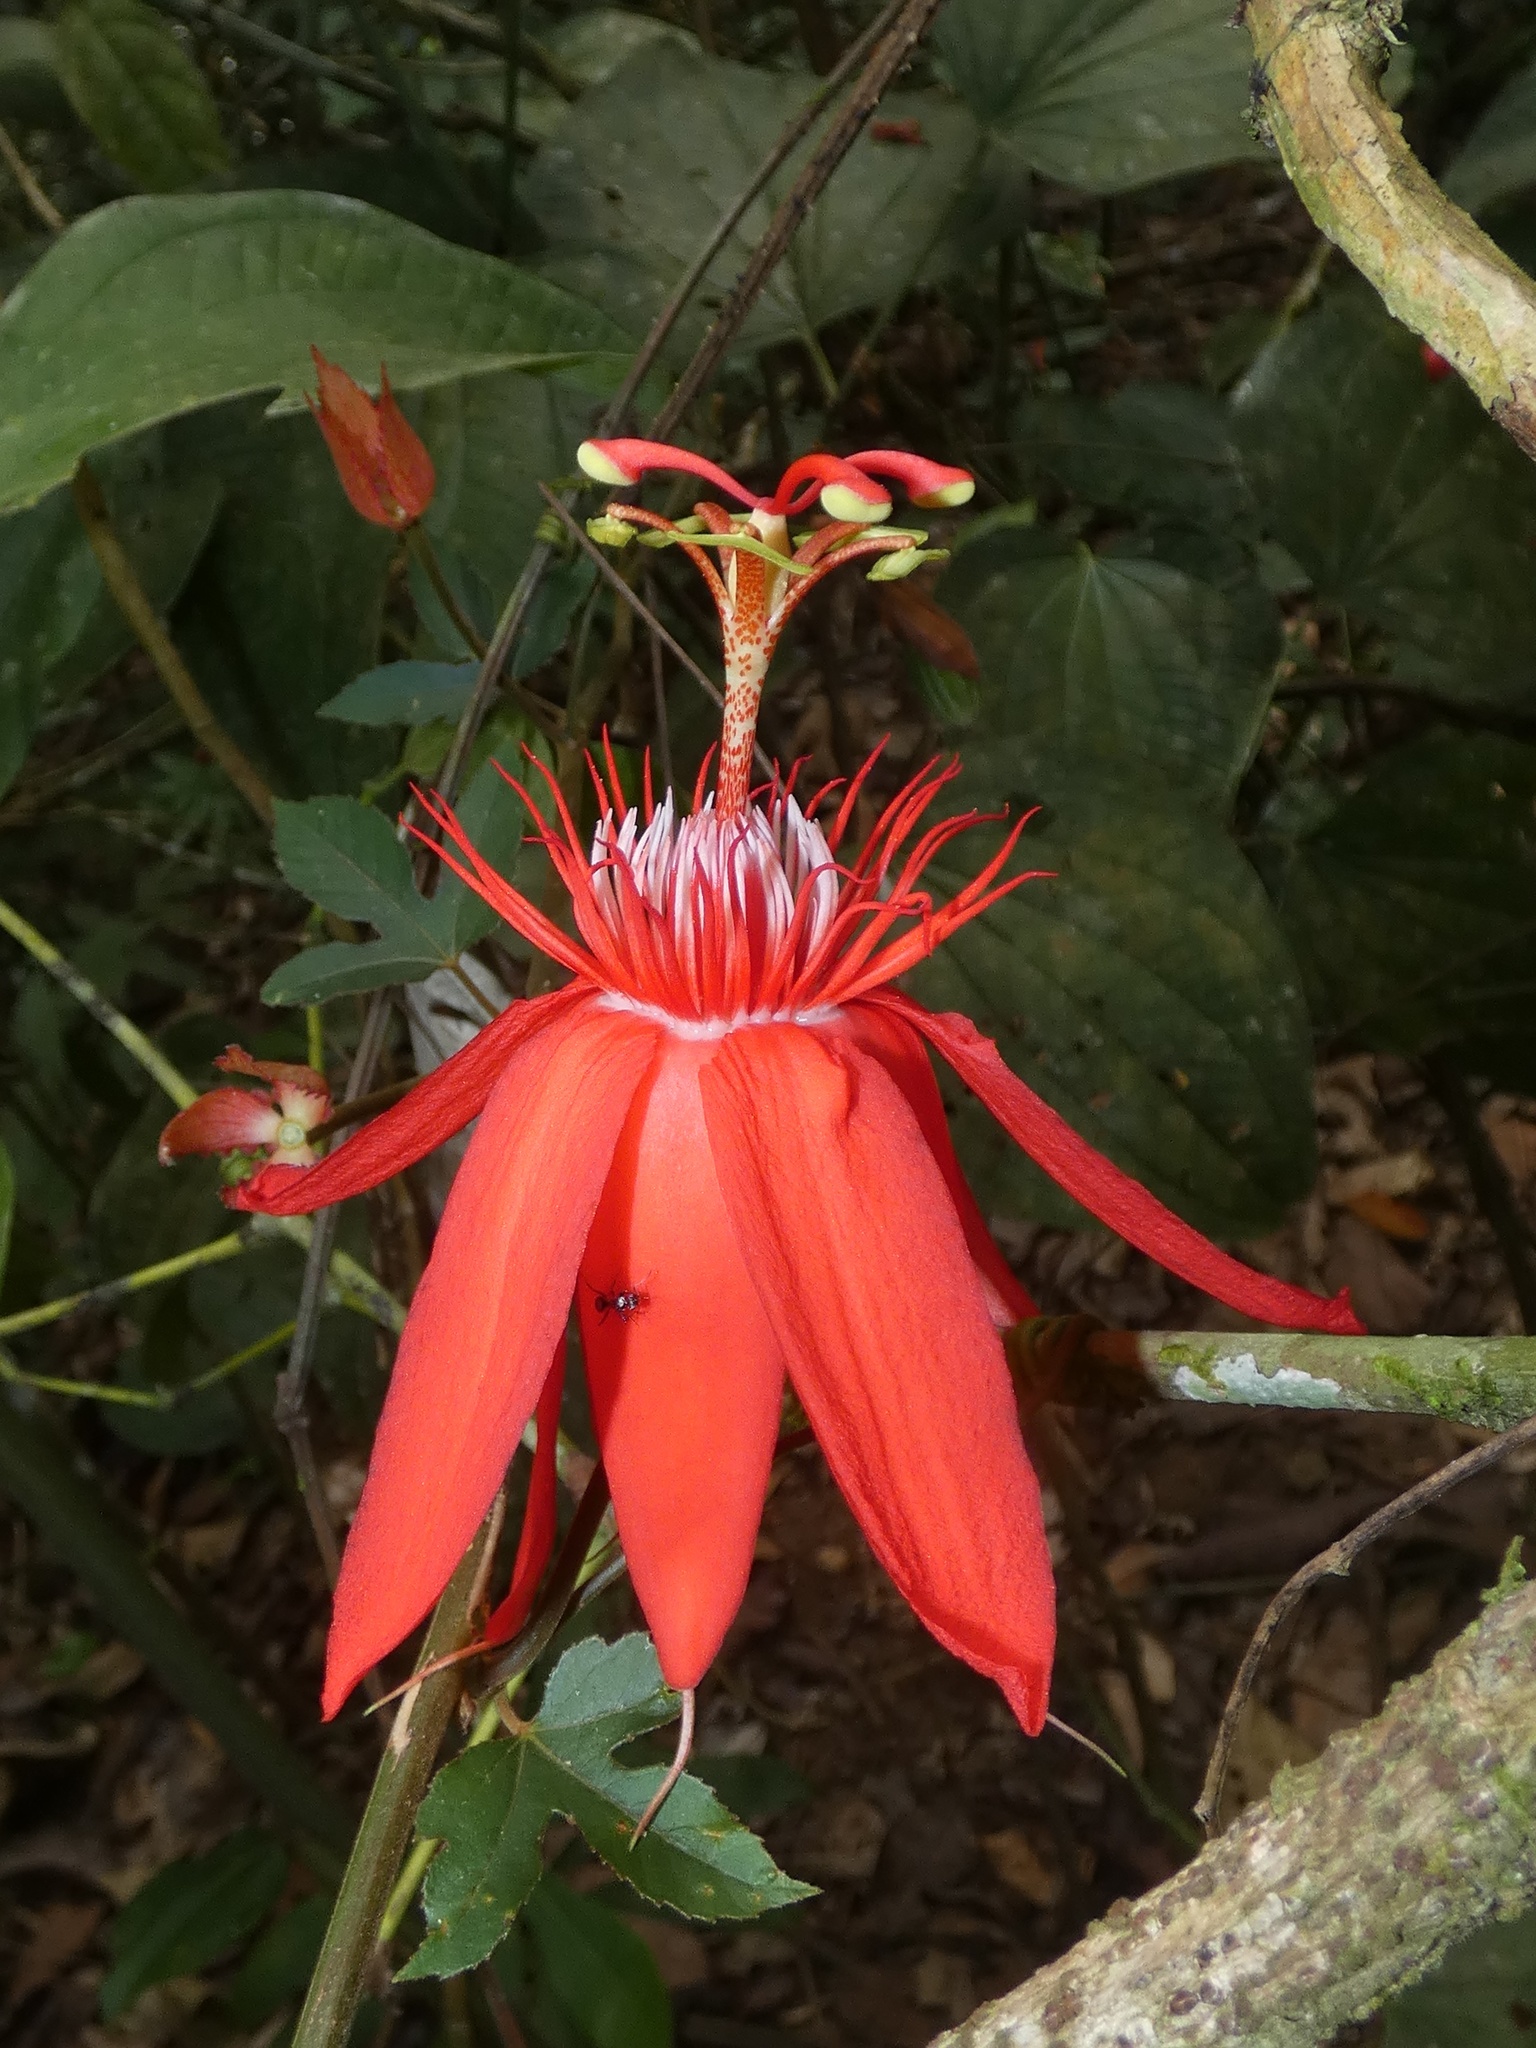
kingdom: Plantae
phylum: Tracheophyta
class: Magnoliopsida
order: Malpighiales
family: Passifloraceae
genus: Passiflora
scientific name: Passiflora vitifolia
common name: Perfumed passionflower
